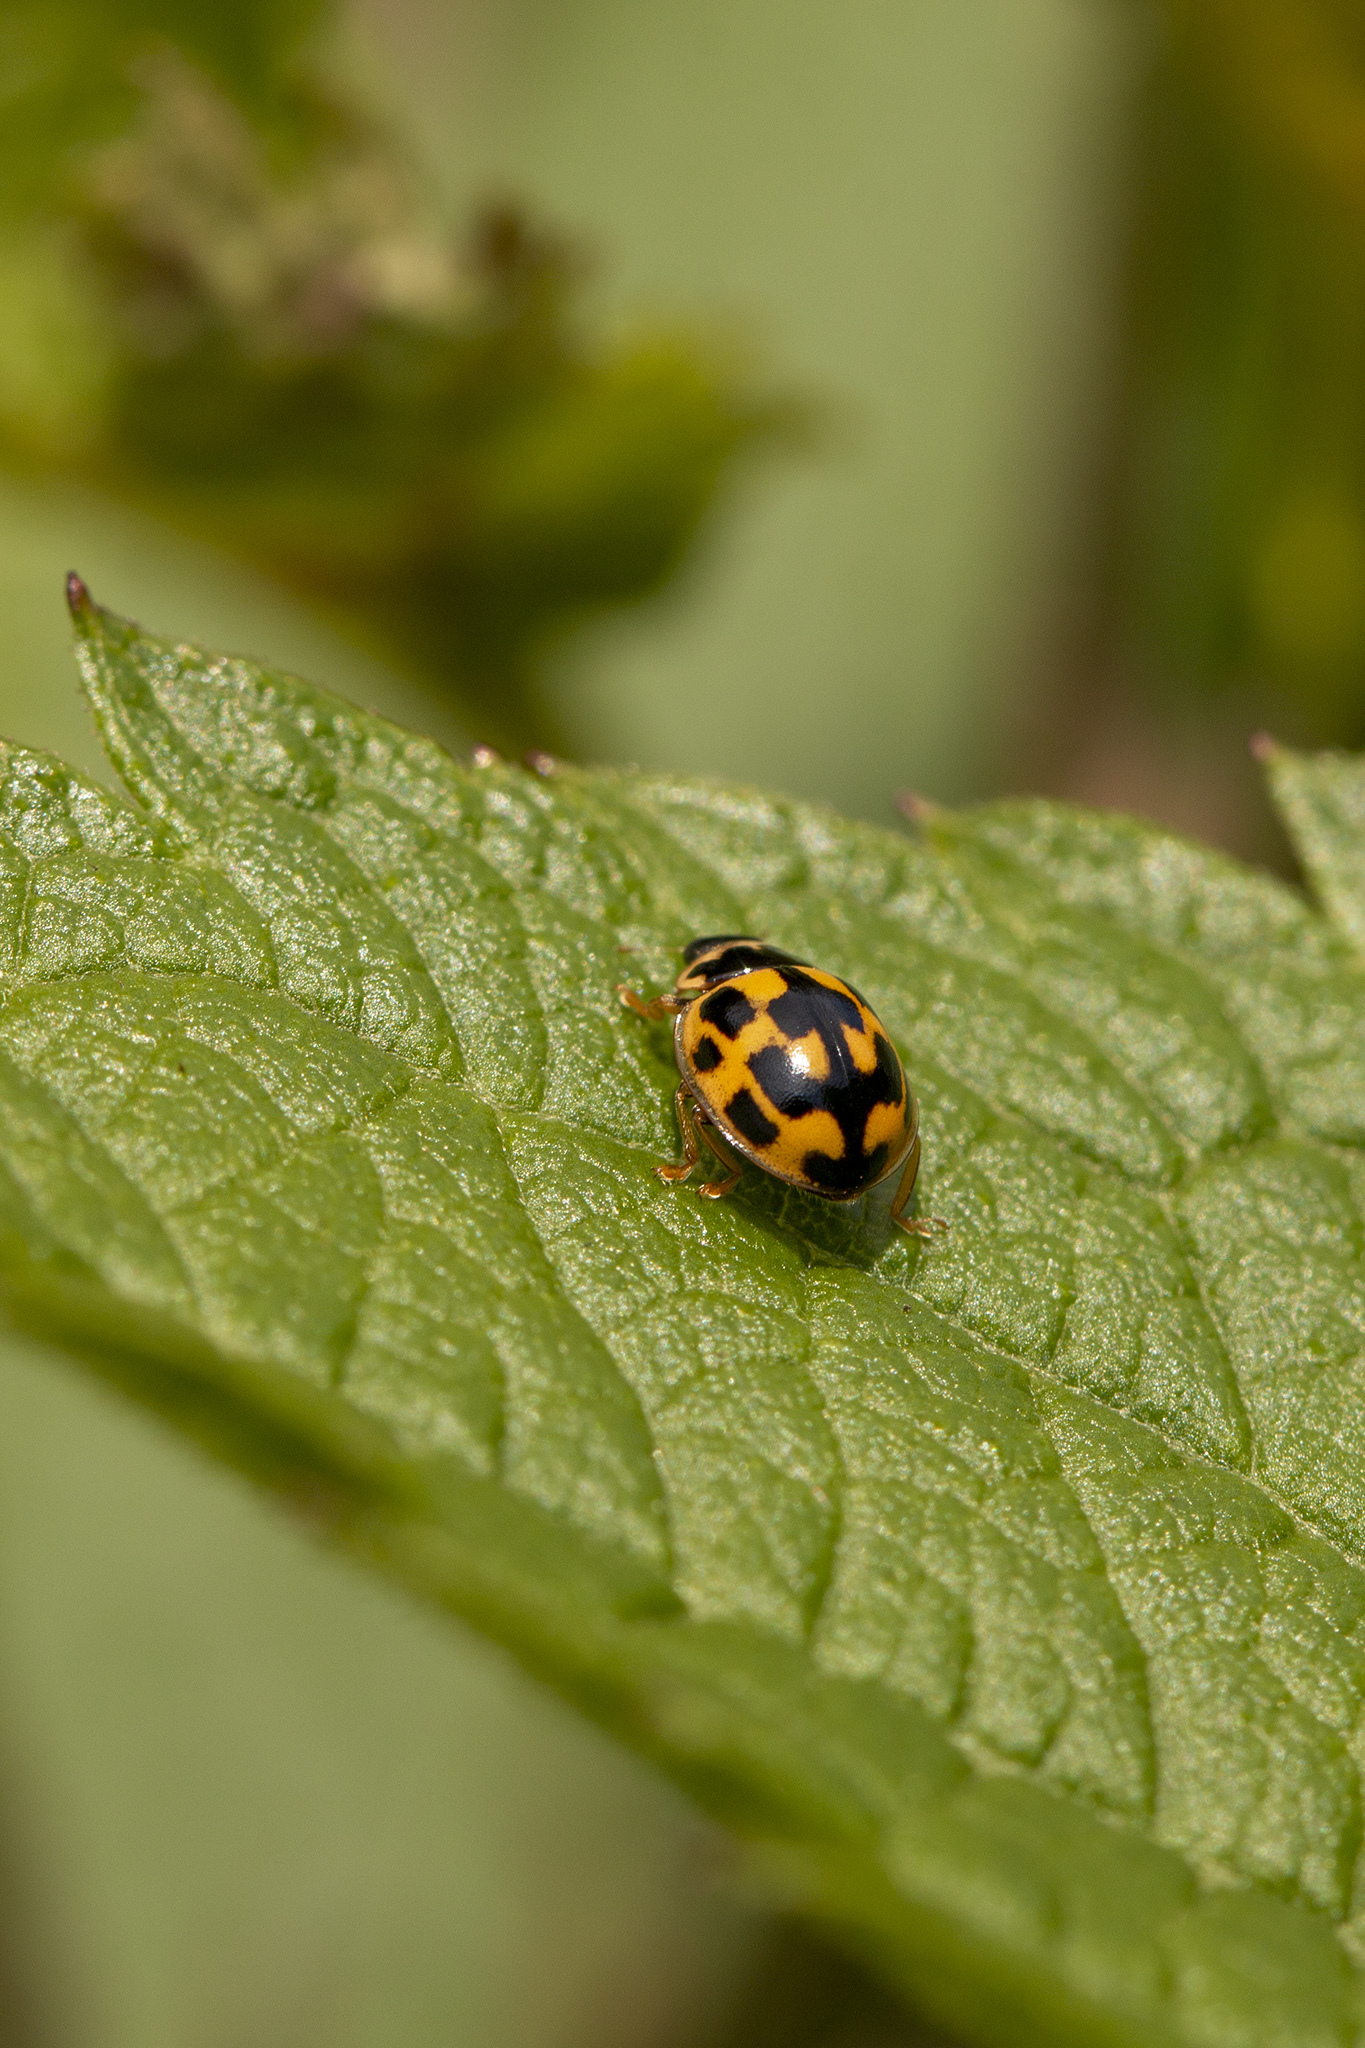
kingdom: Animalia
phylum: Arthropoda
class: Insecta
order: Coleoptera
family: Coccinellidae
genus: Propylaea
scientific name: Propylaea quatuordecimpunctata
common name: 14-spotted ladybird beetle
